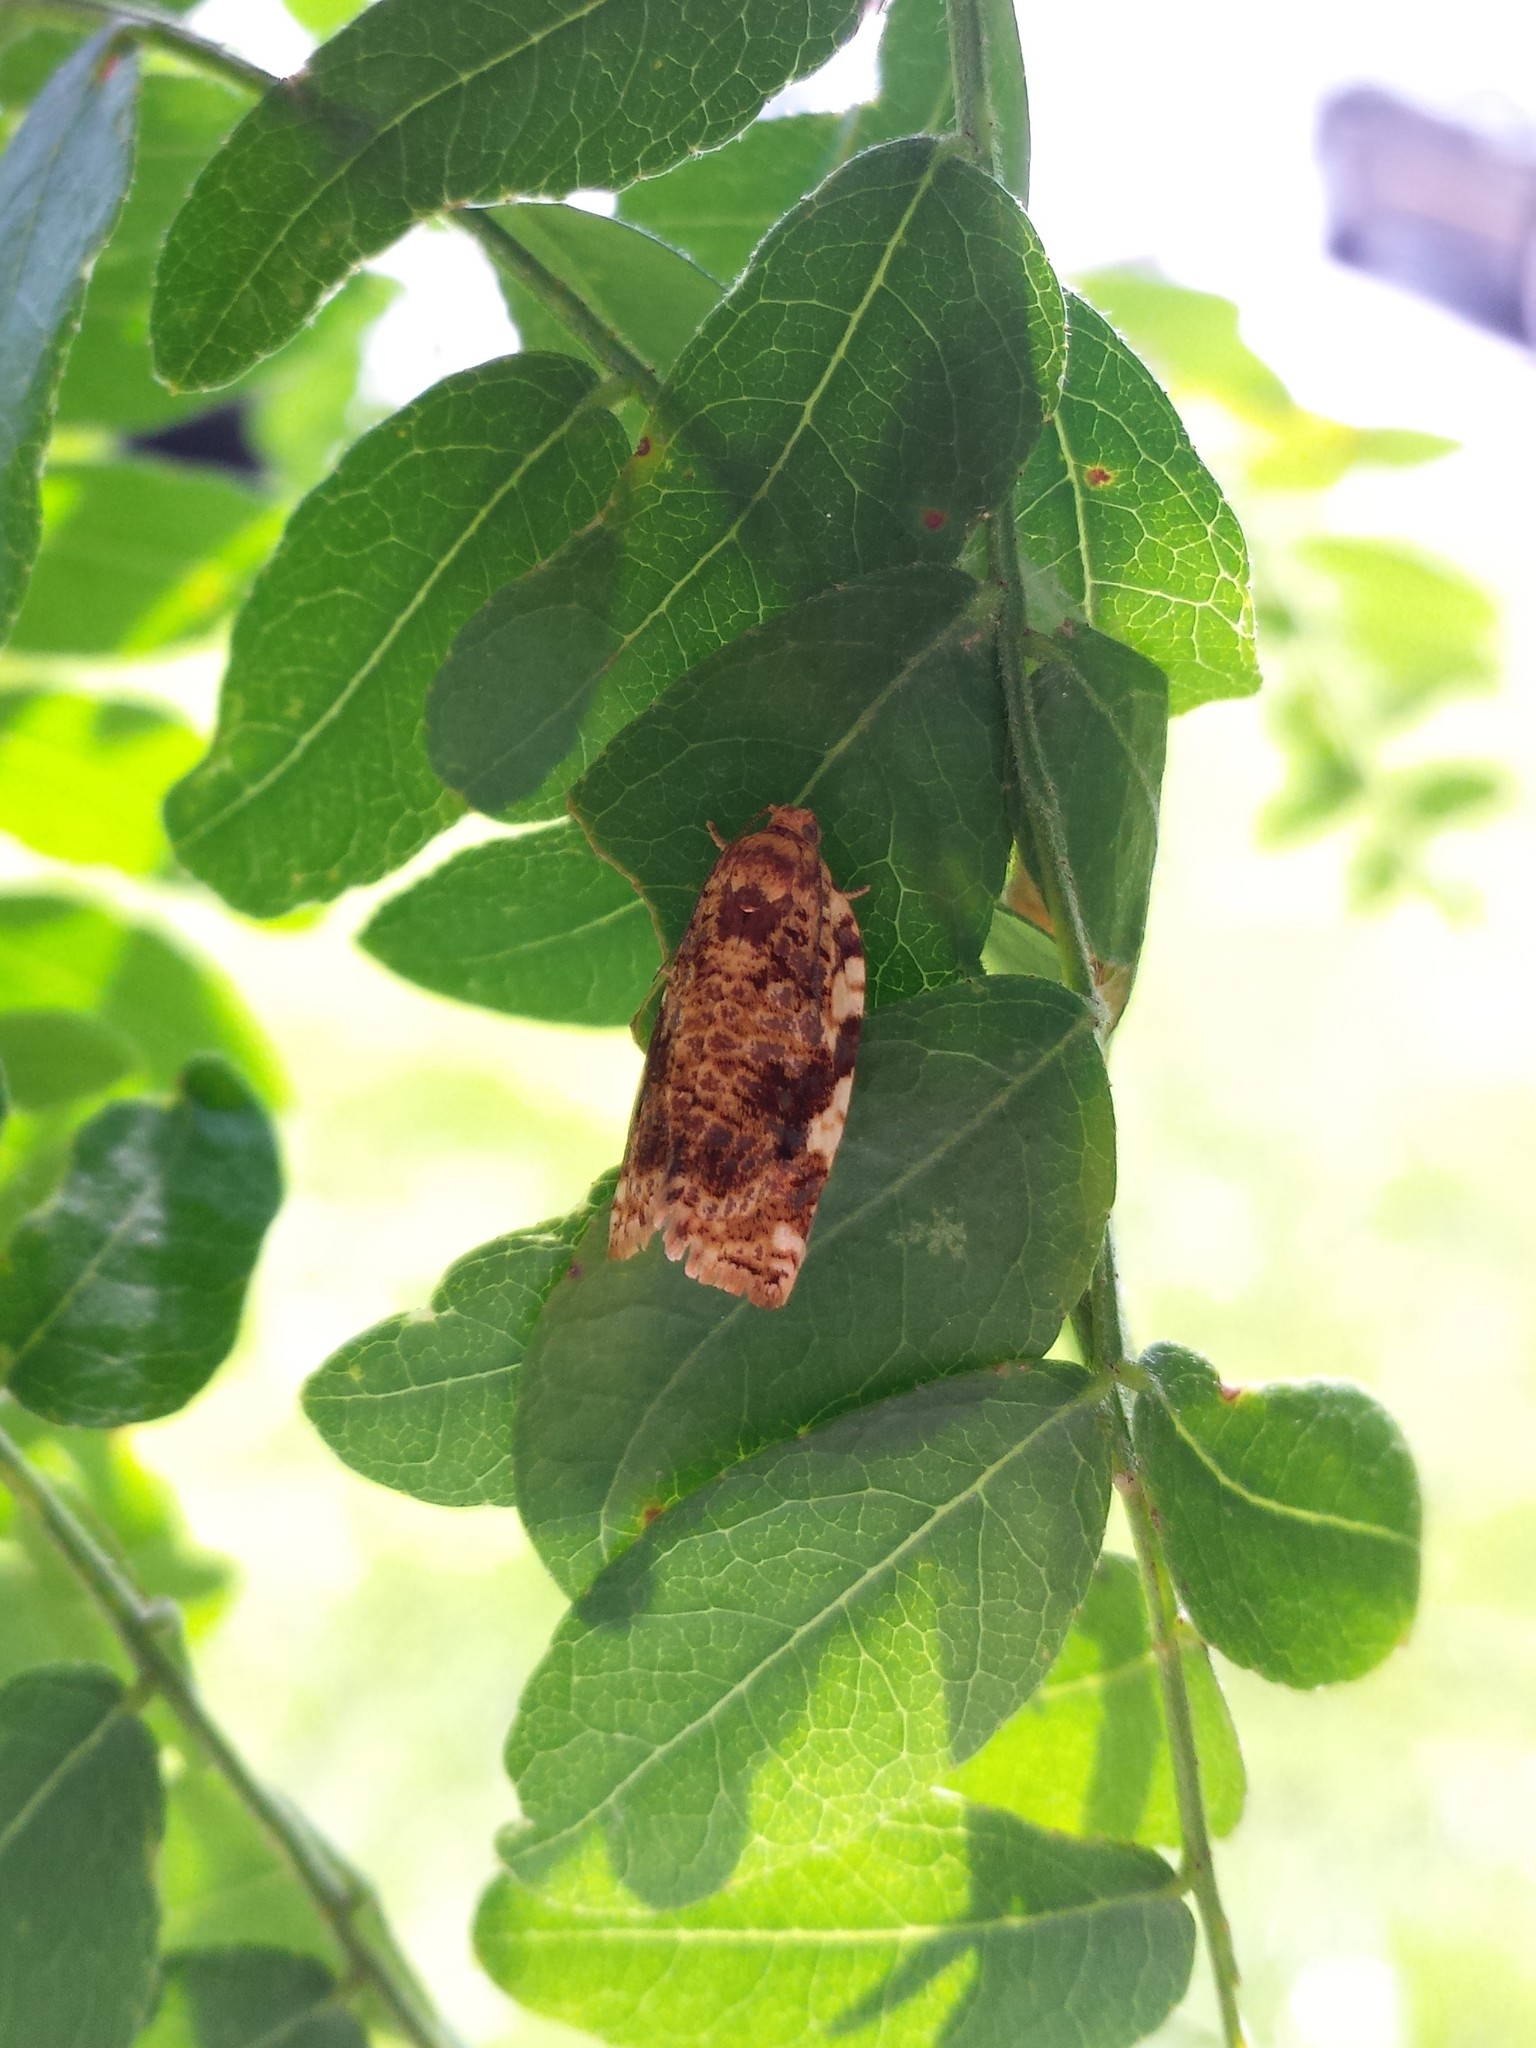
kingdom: Animalia
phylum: Arthropoda
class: Insecta
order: Lepidoptera
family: Tortricidae
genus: Archips
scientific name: Archips argyrospila
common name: Fruit-tree leafroller moth
